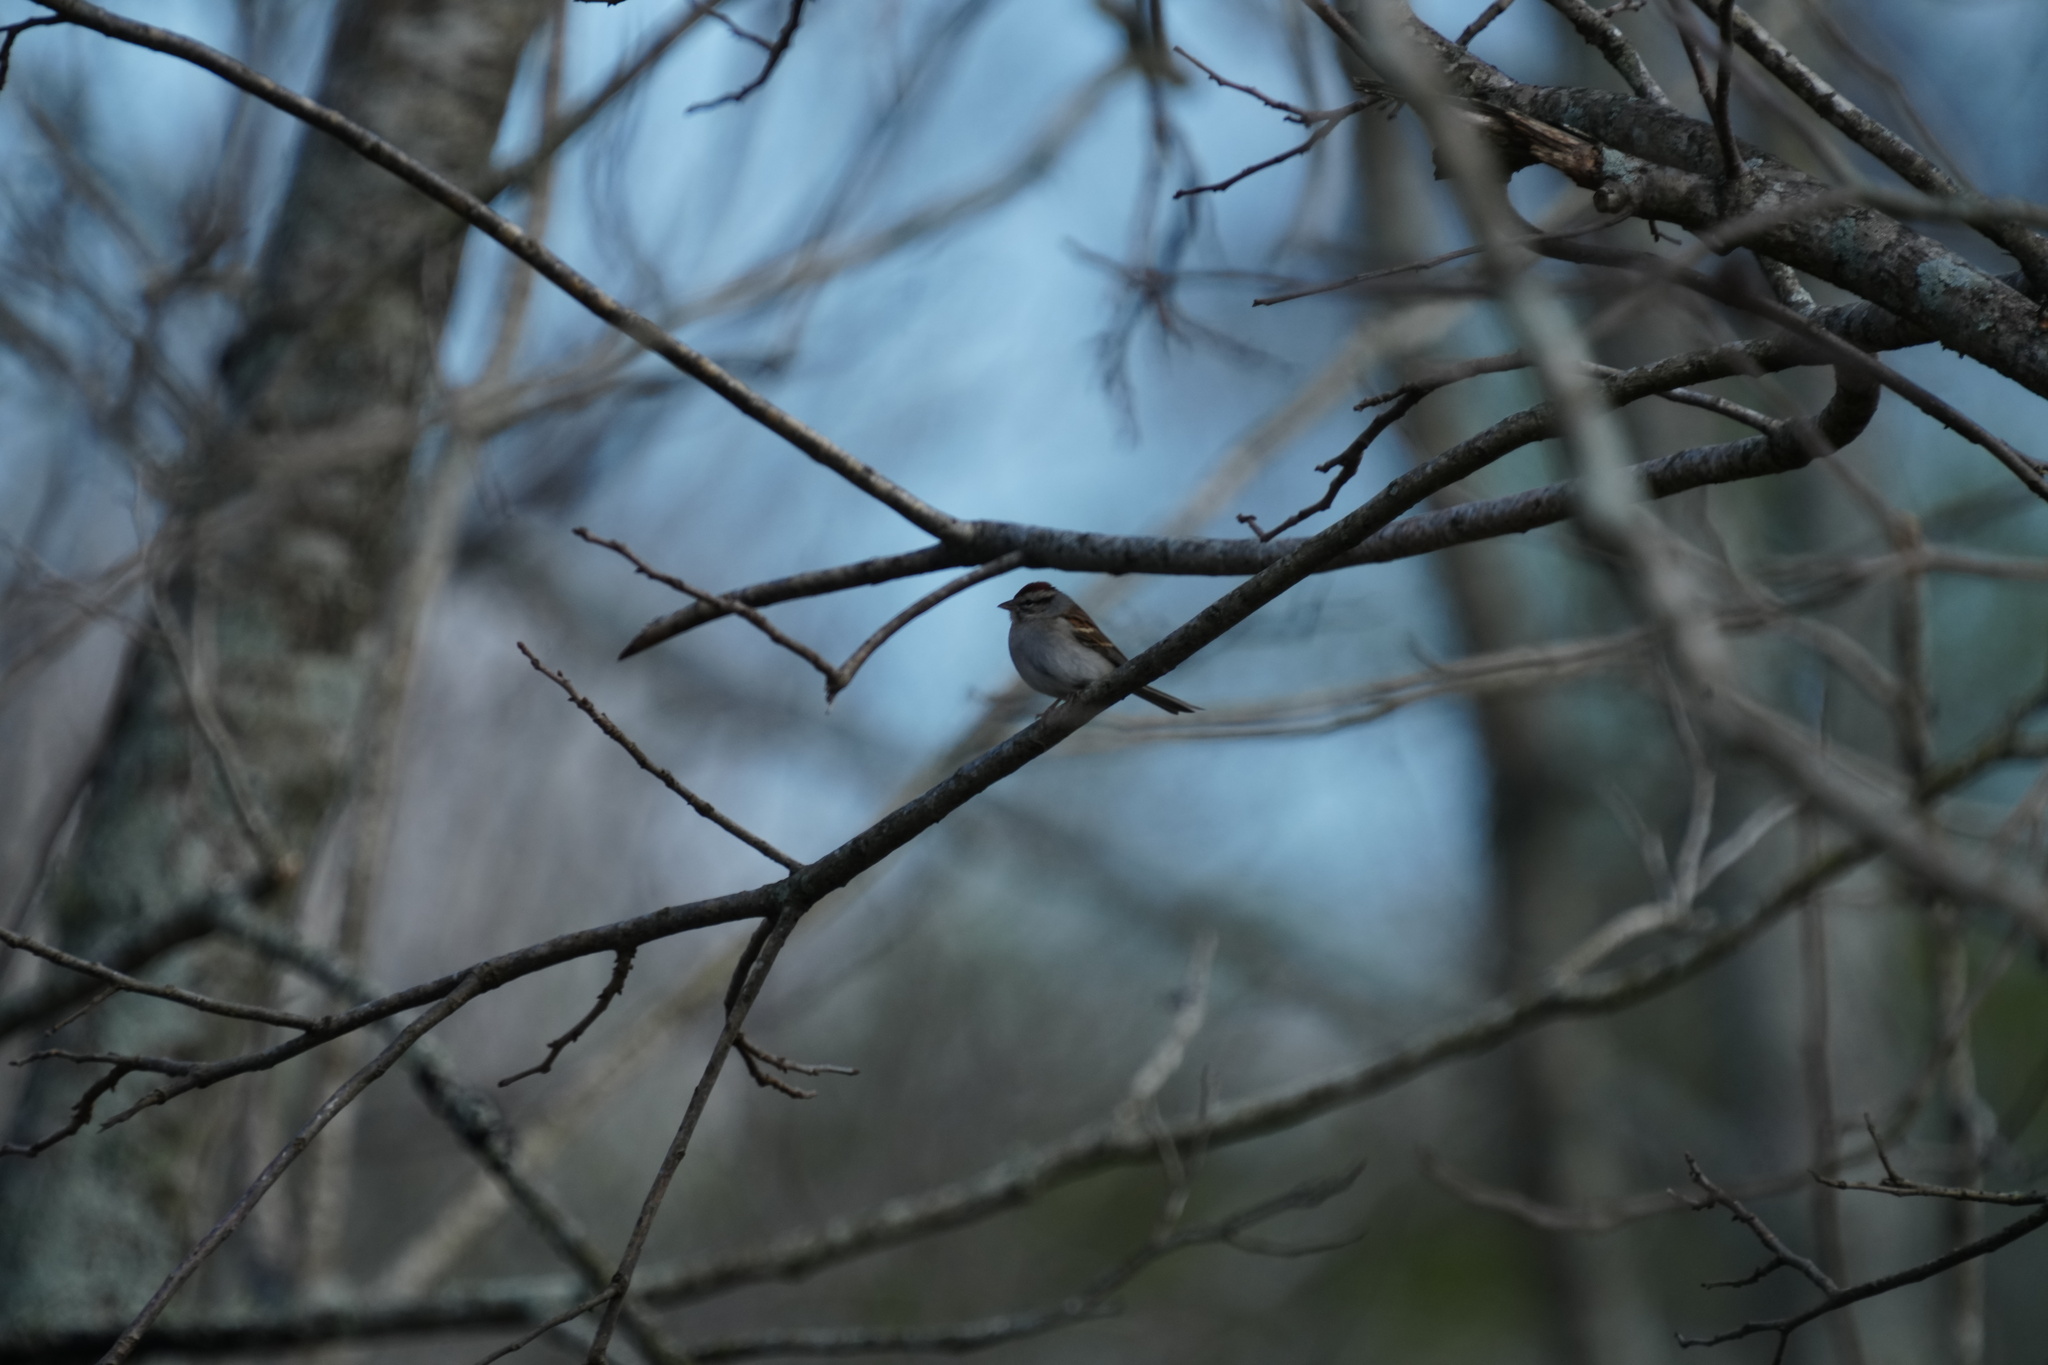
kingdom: Animalia
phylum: Chordata
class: Aves
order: Passeriformes
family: Passerellidae
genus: Spizella
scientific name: Spizella passerina
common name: Chipping sparrow
